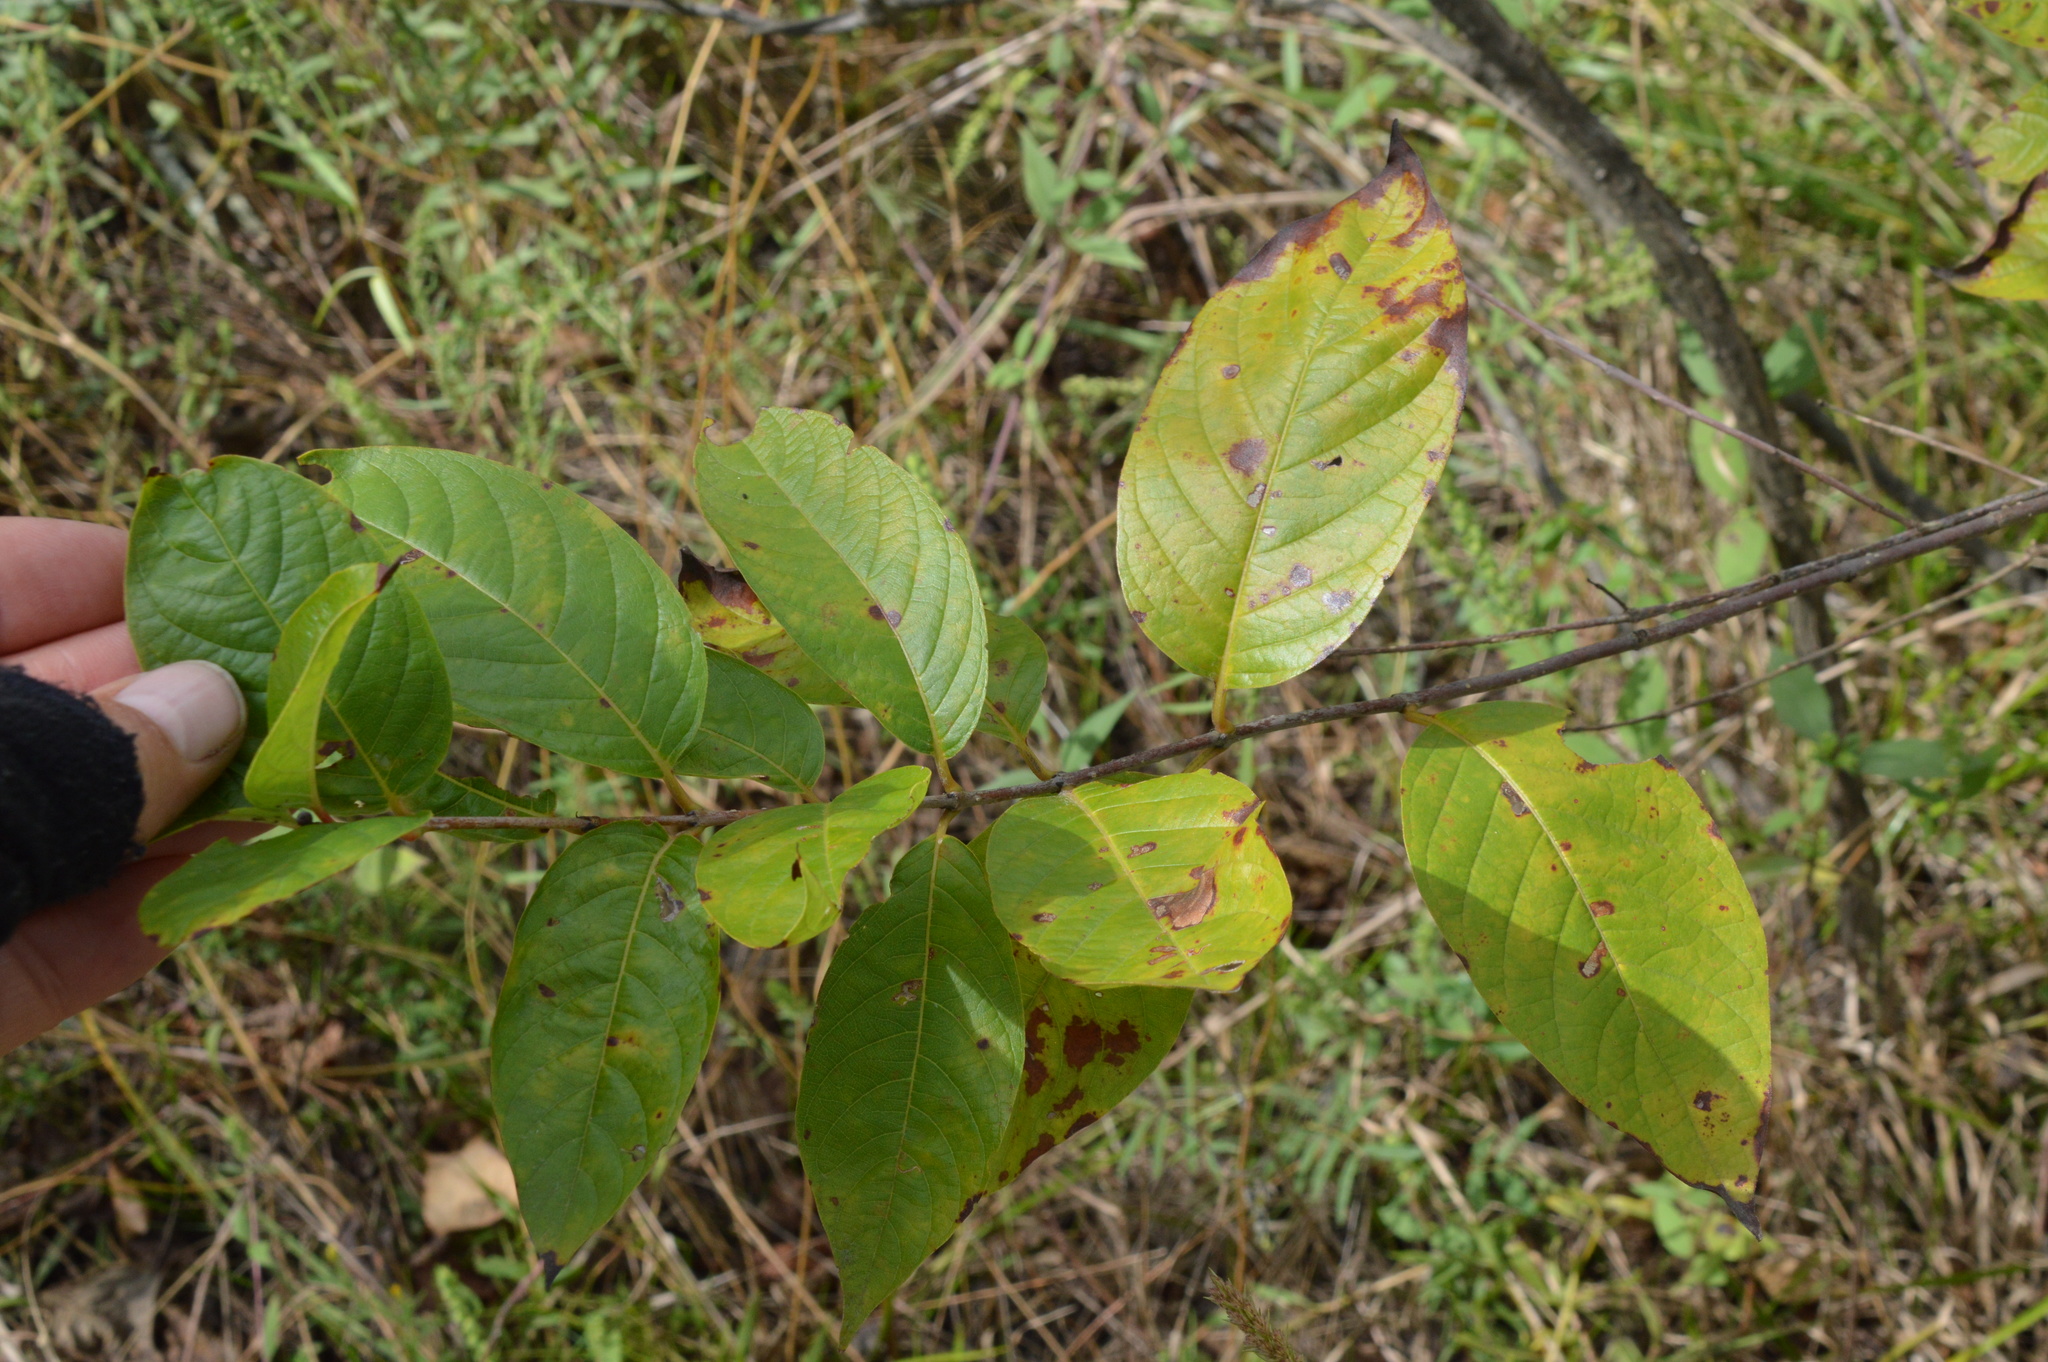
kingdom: Plantae
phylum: Tracheophyta
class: Magnoliopsida
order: Gentianales
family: Rubiaceae
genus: Cephalanthus
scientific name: Cephalanthus occidentalis
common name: Button-willow
